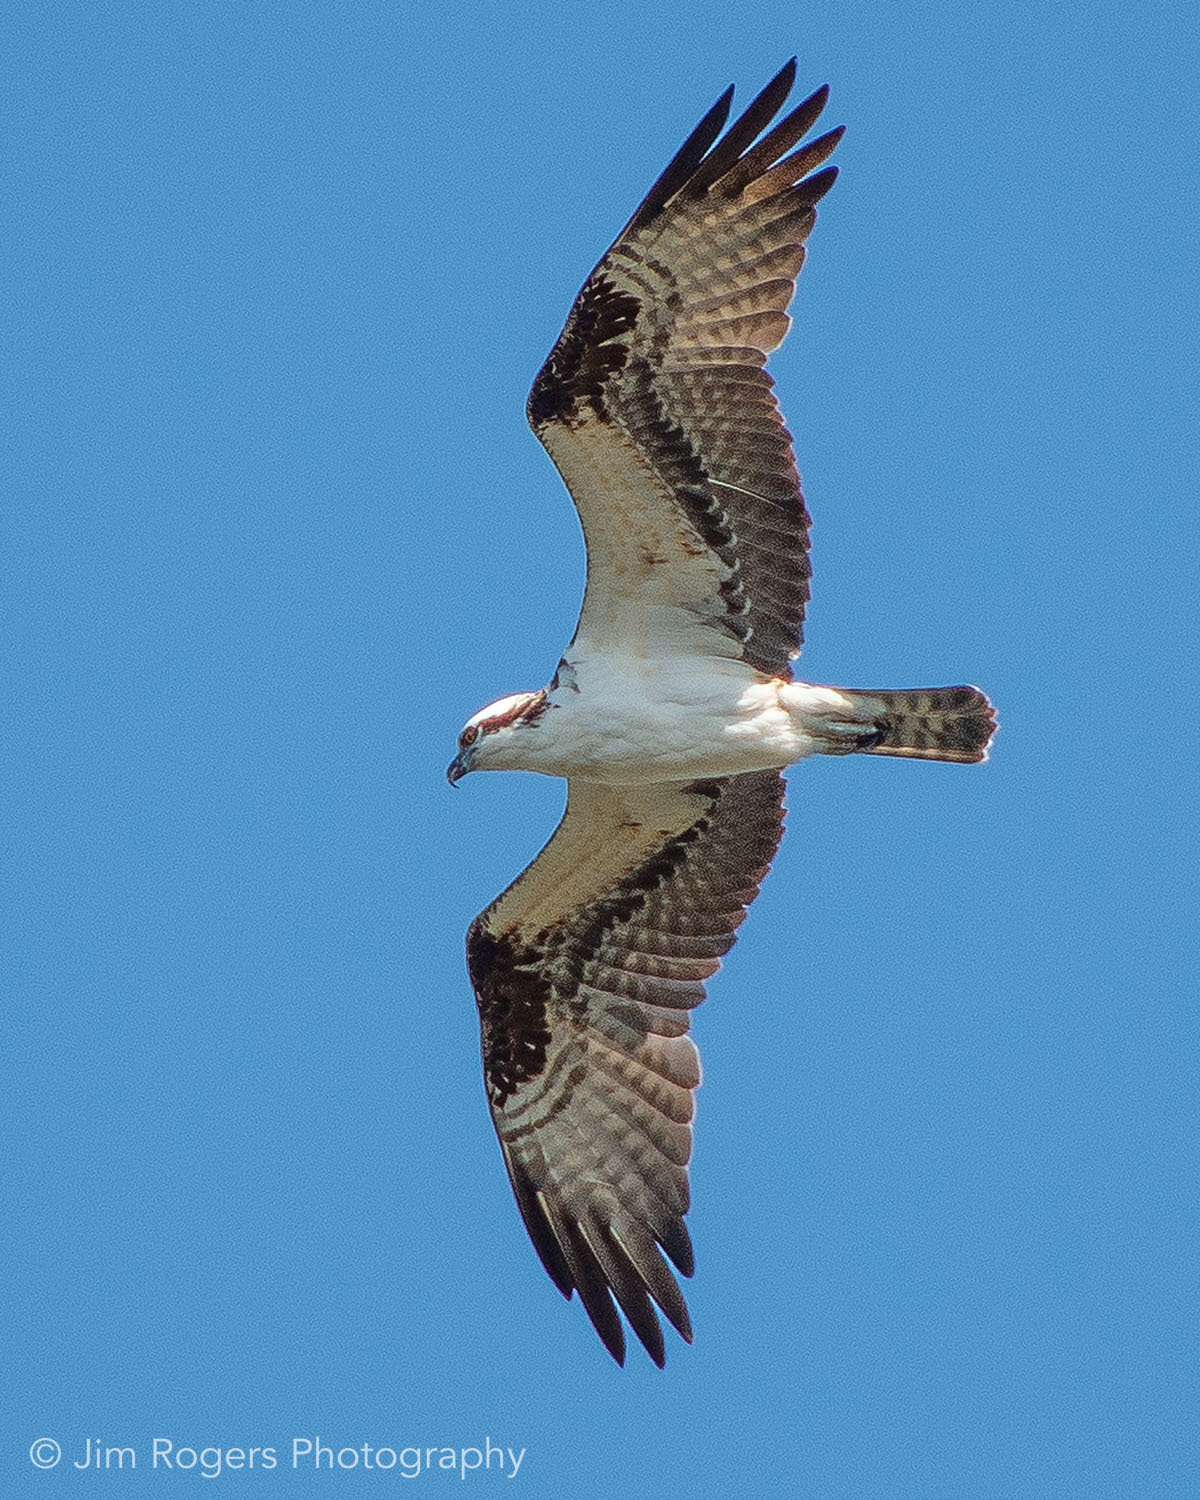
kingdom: Animalia
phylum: Chordata
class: Aves
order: Accipitriformes
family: Pandionidae
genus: Pandion
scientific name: Pandion haliaetus
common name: Osprey
